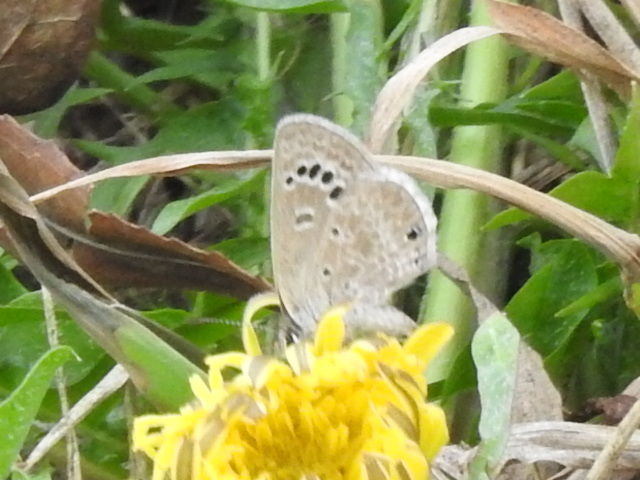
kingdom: Animalia
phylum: Arthropoda
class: Insecta
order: Lepidoptera
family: Lycaenidae
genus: Echinargus
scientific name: Echinargus isola
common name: Reakirt's blue
